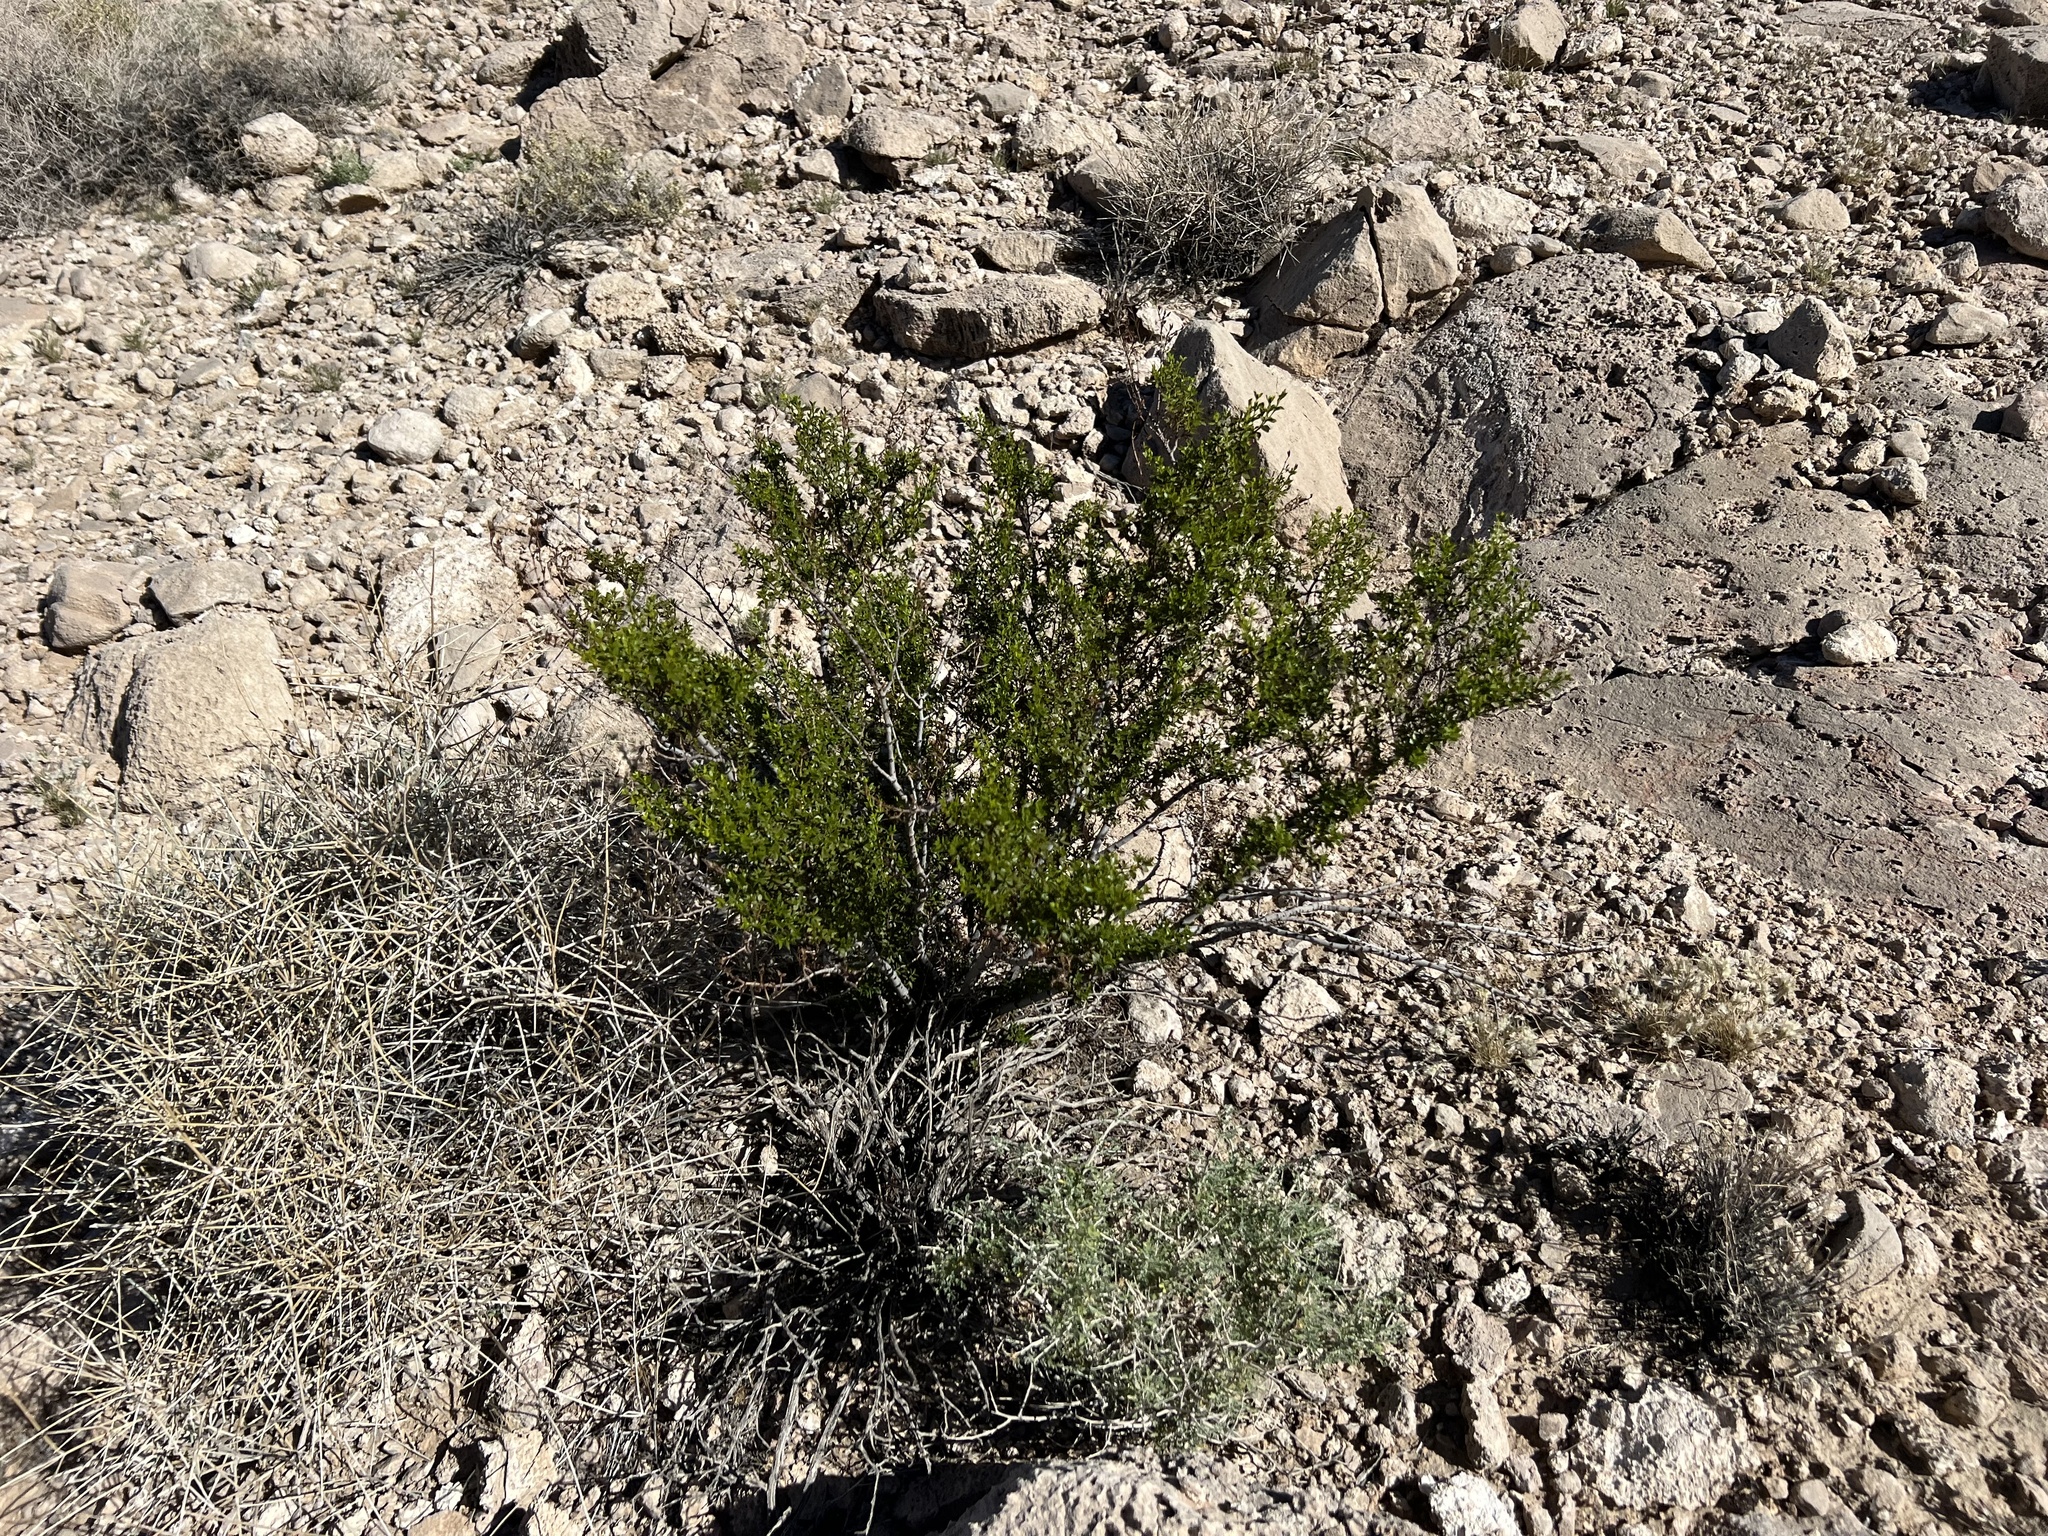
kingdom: Plantae
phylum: Tracheophyta
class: Magnoliopsida
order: Zygophyllales
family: Zygophyllaceae
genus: Larrea
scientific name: Larrea tridentata
